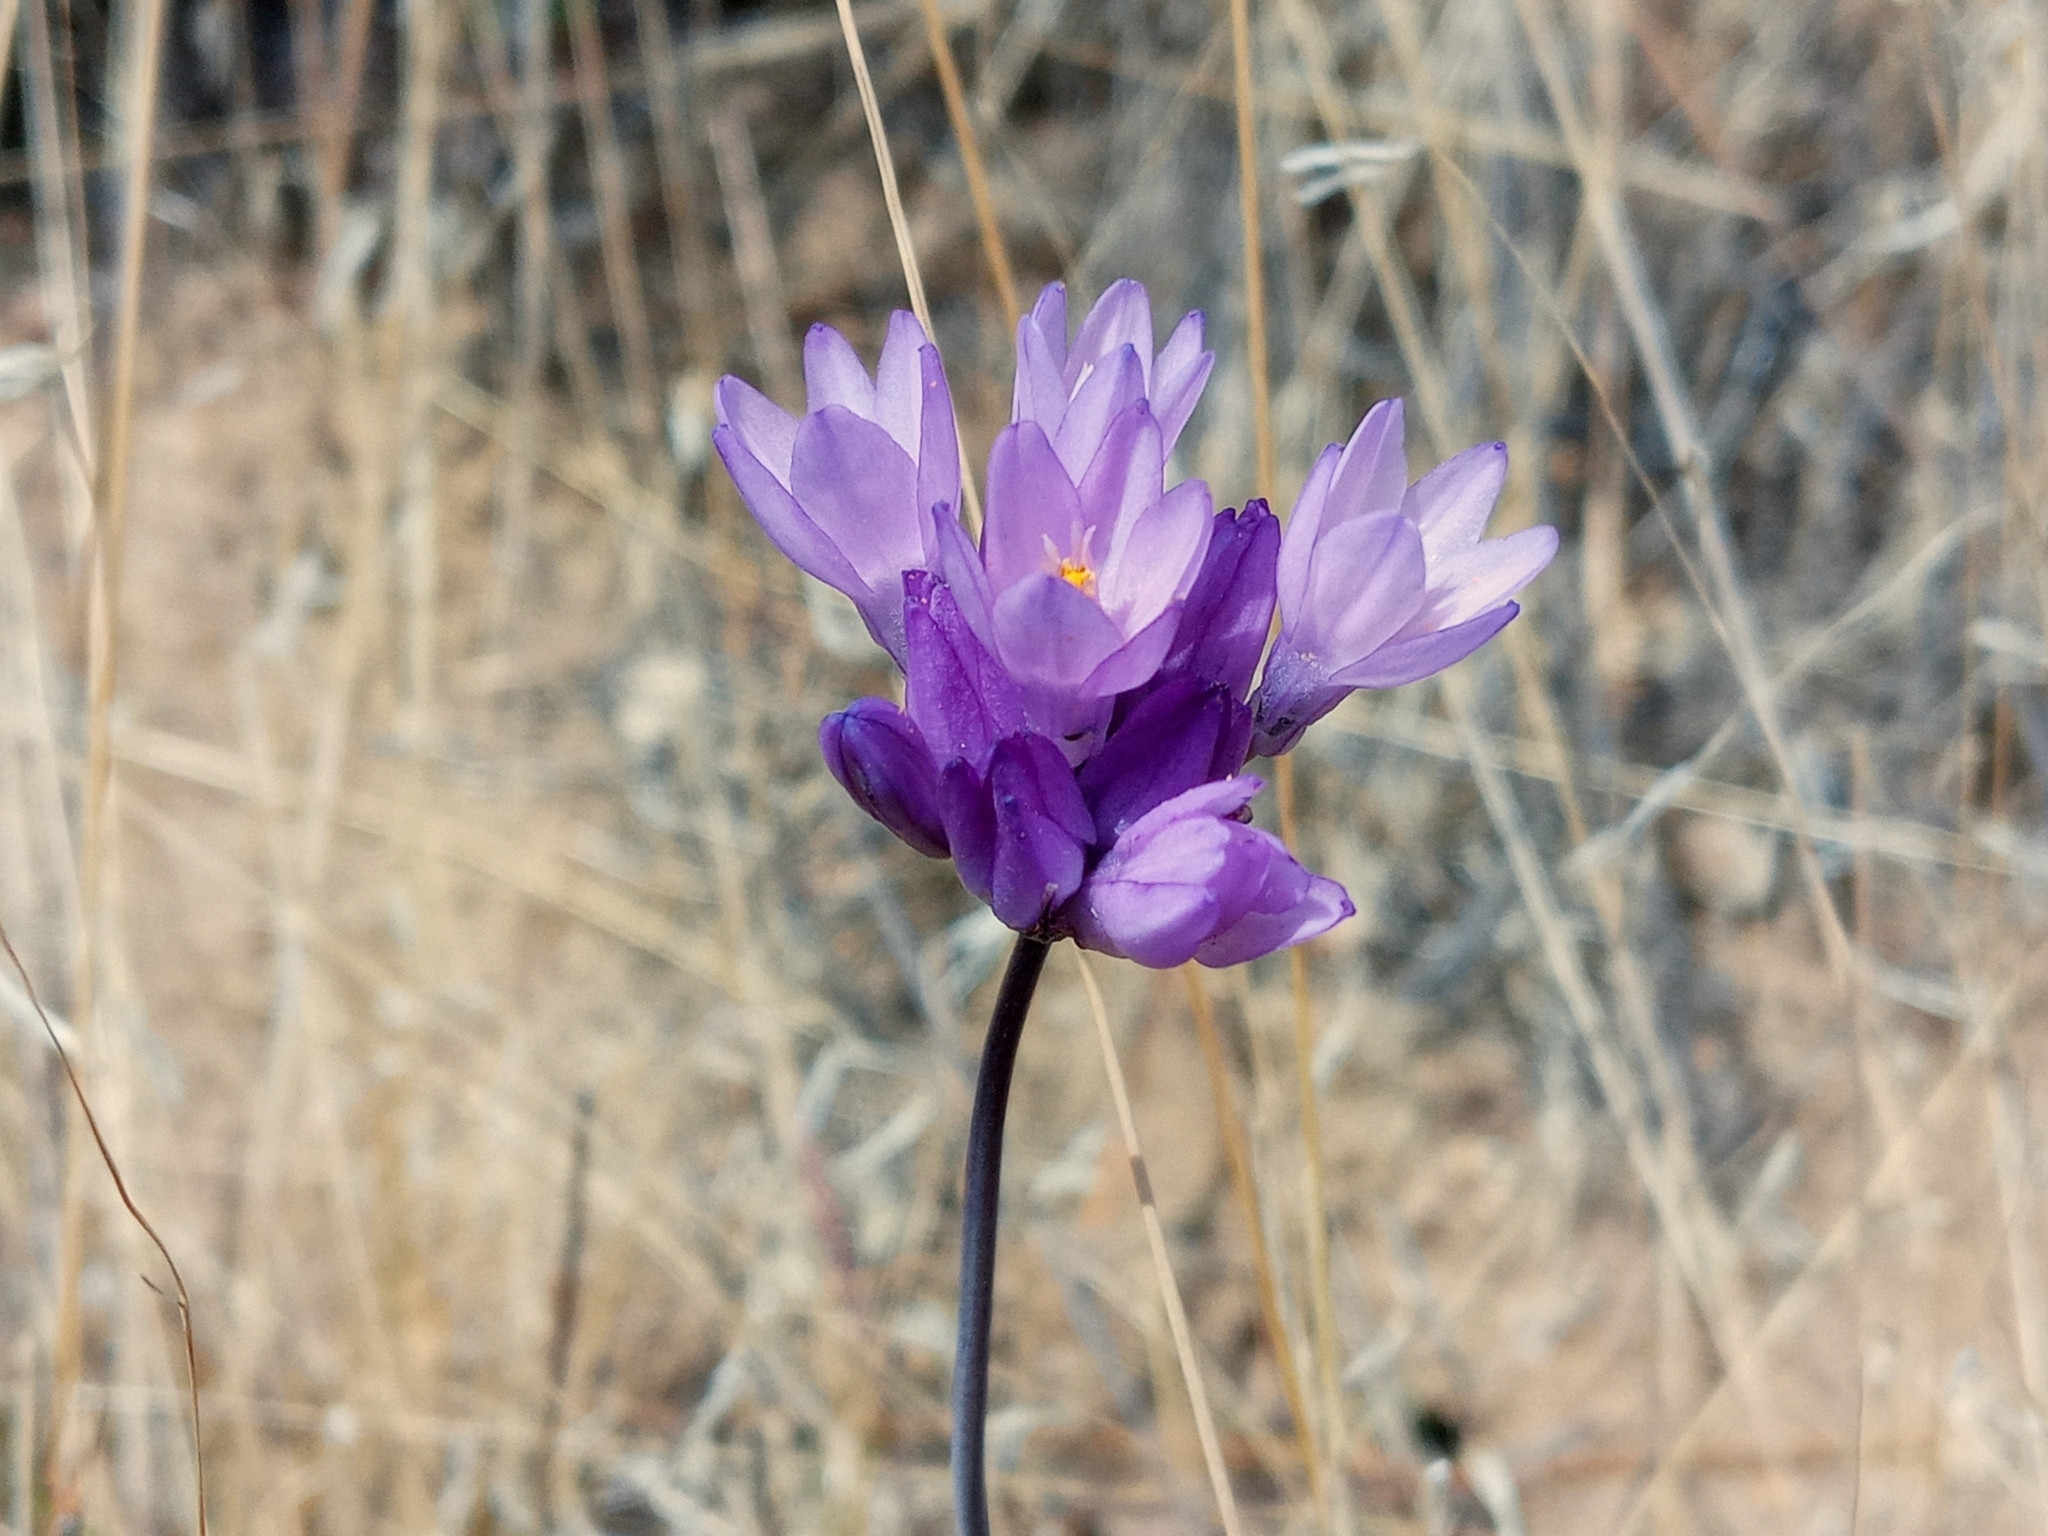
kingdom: Plantae
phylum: Tracheophyta
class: Liliopsida
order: Asparagales
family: Asparagaceae
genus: Dipterostemon
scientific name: Dipterostemon capitatus
